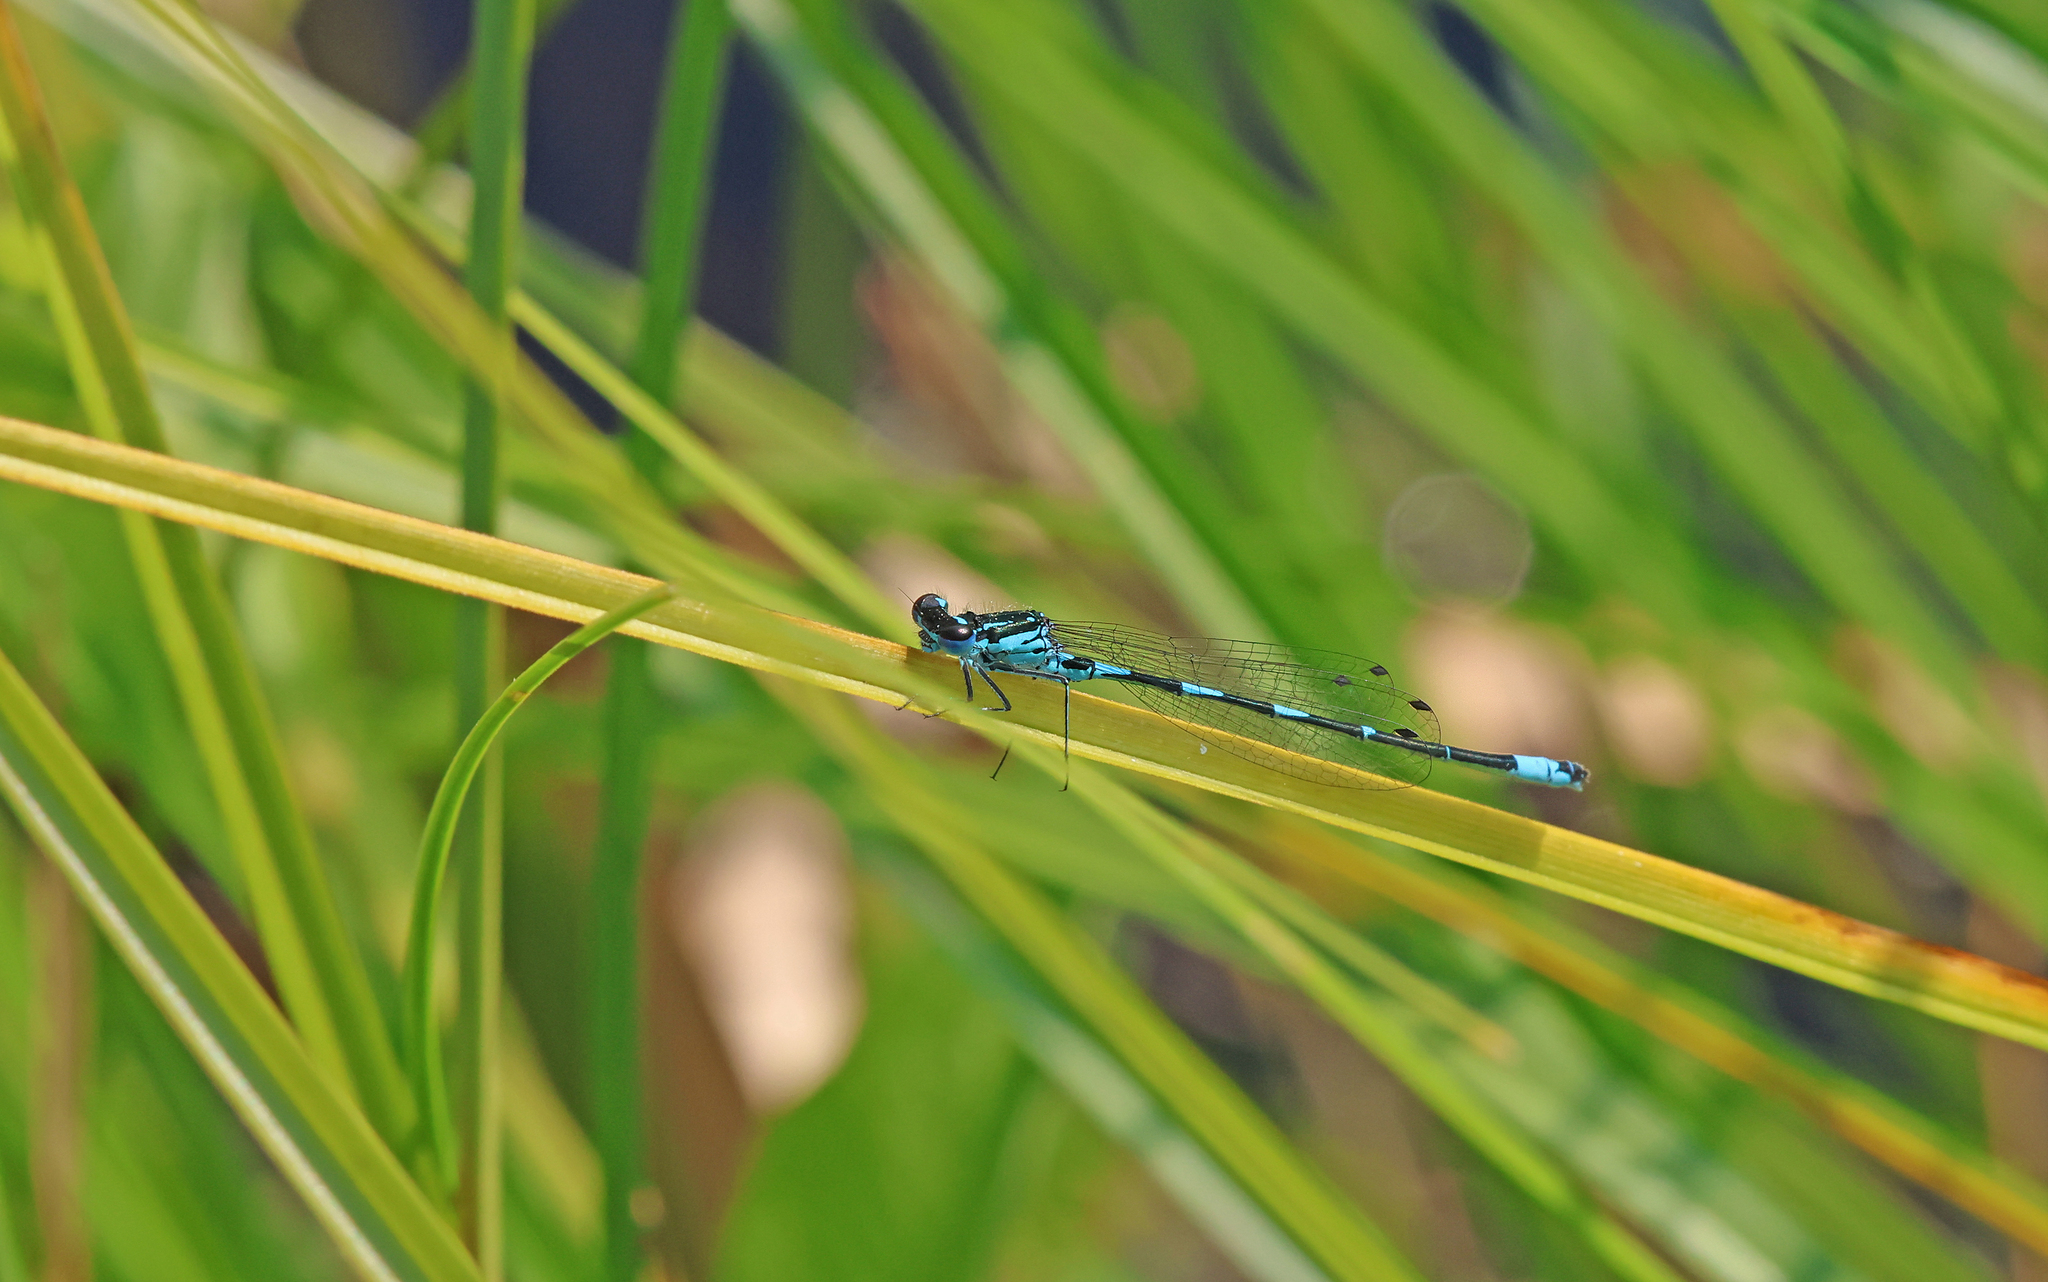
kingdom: Animalia
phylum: Arthropoda
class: Insecta
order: Odonata
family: Coenagrionidae
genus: Coenagrion
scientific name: Coenagrion pulchellum
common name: Variable bluet
